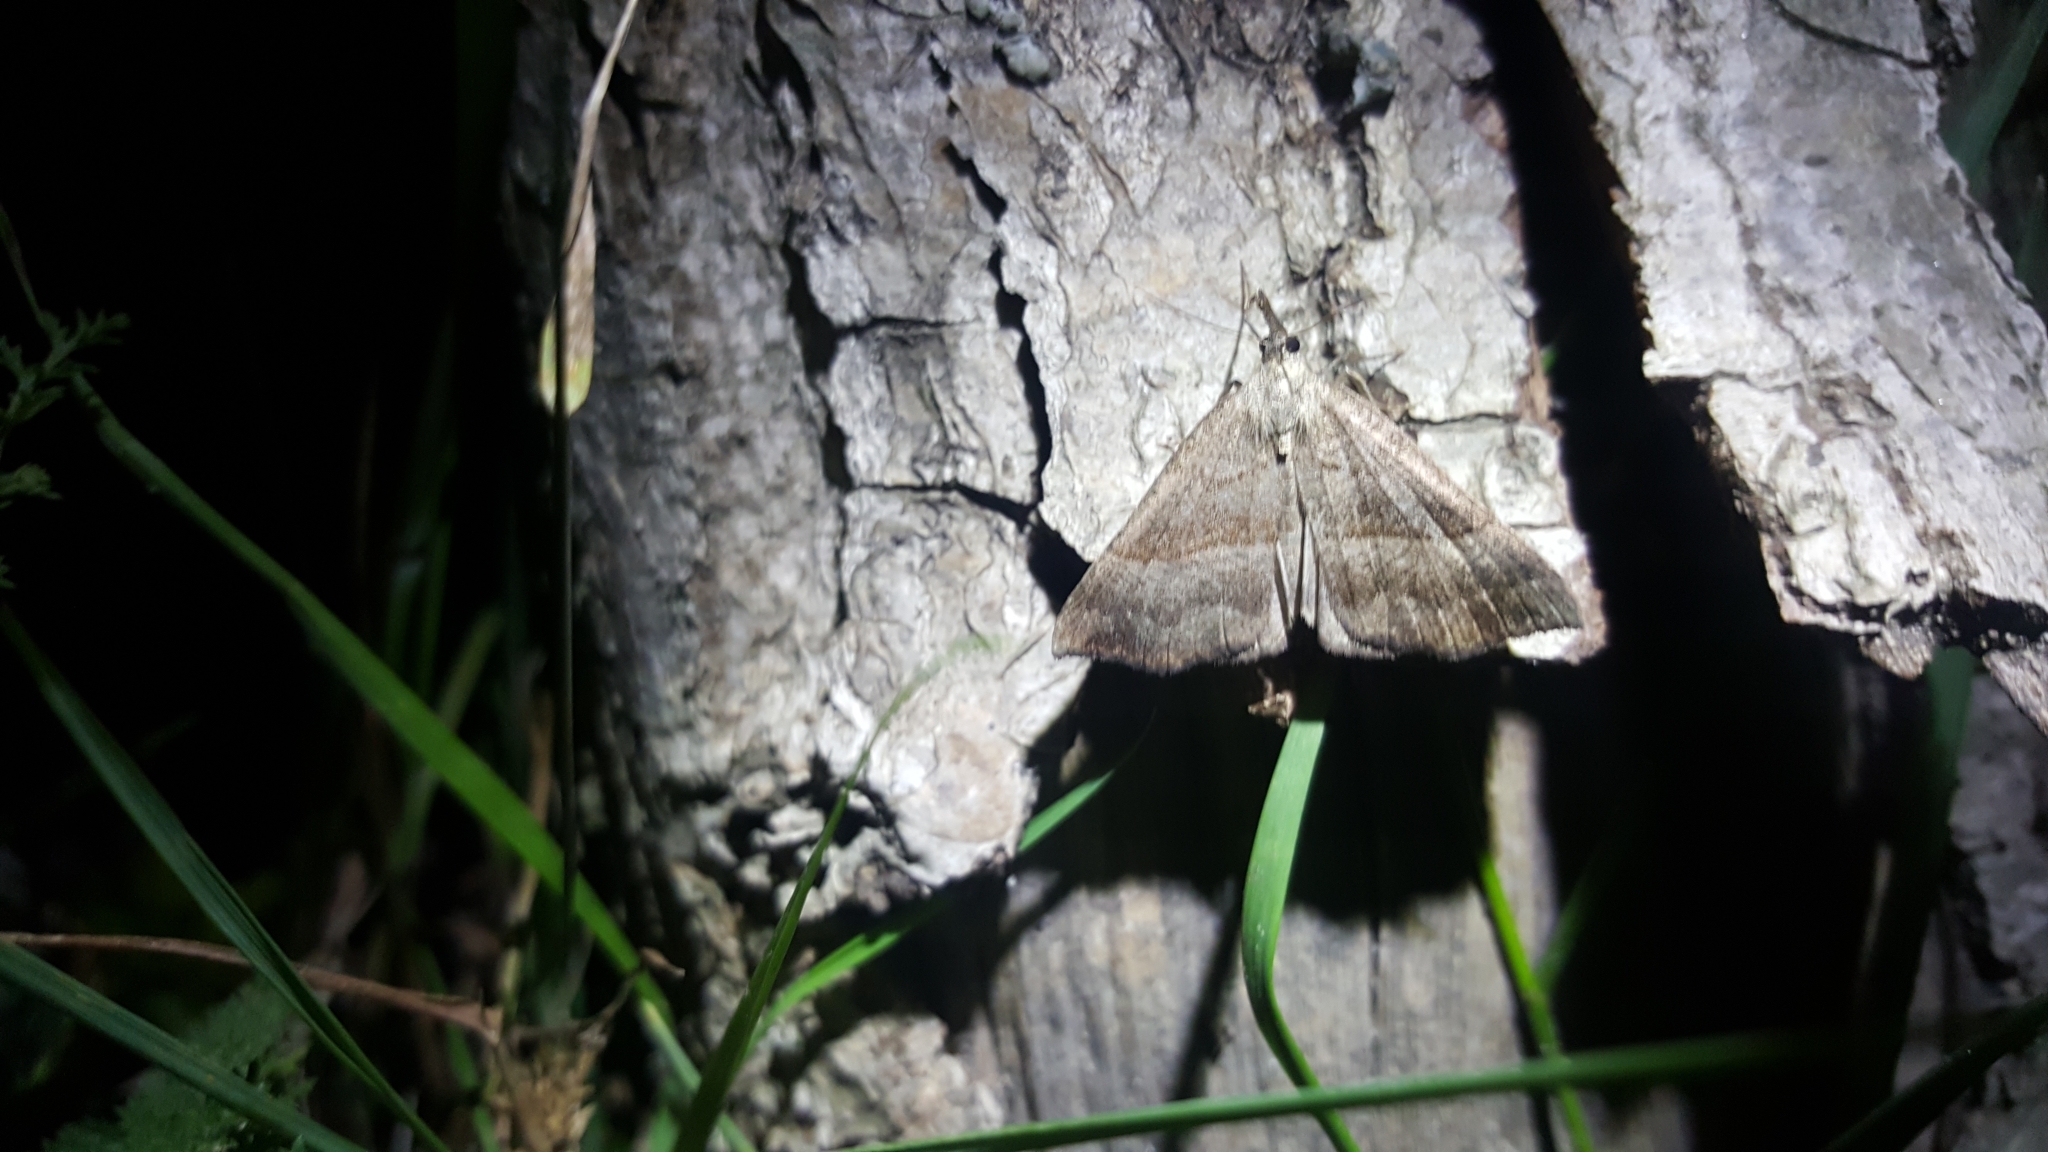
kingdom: Animalia
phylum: Arthropoda
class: Insecta
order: Lepidoptera
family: Erebidae
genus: Hypena
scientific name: Hypena proboscidalis
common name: Snout
